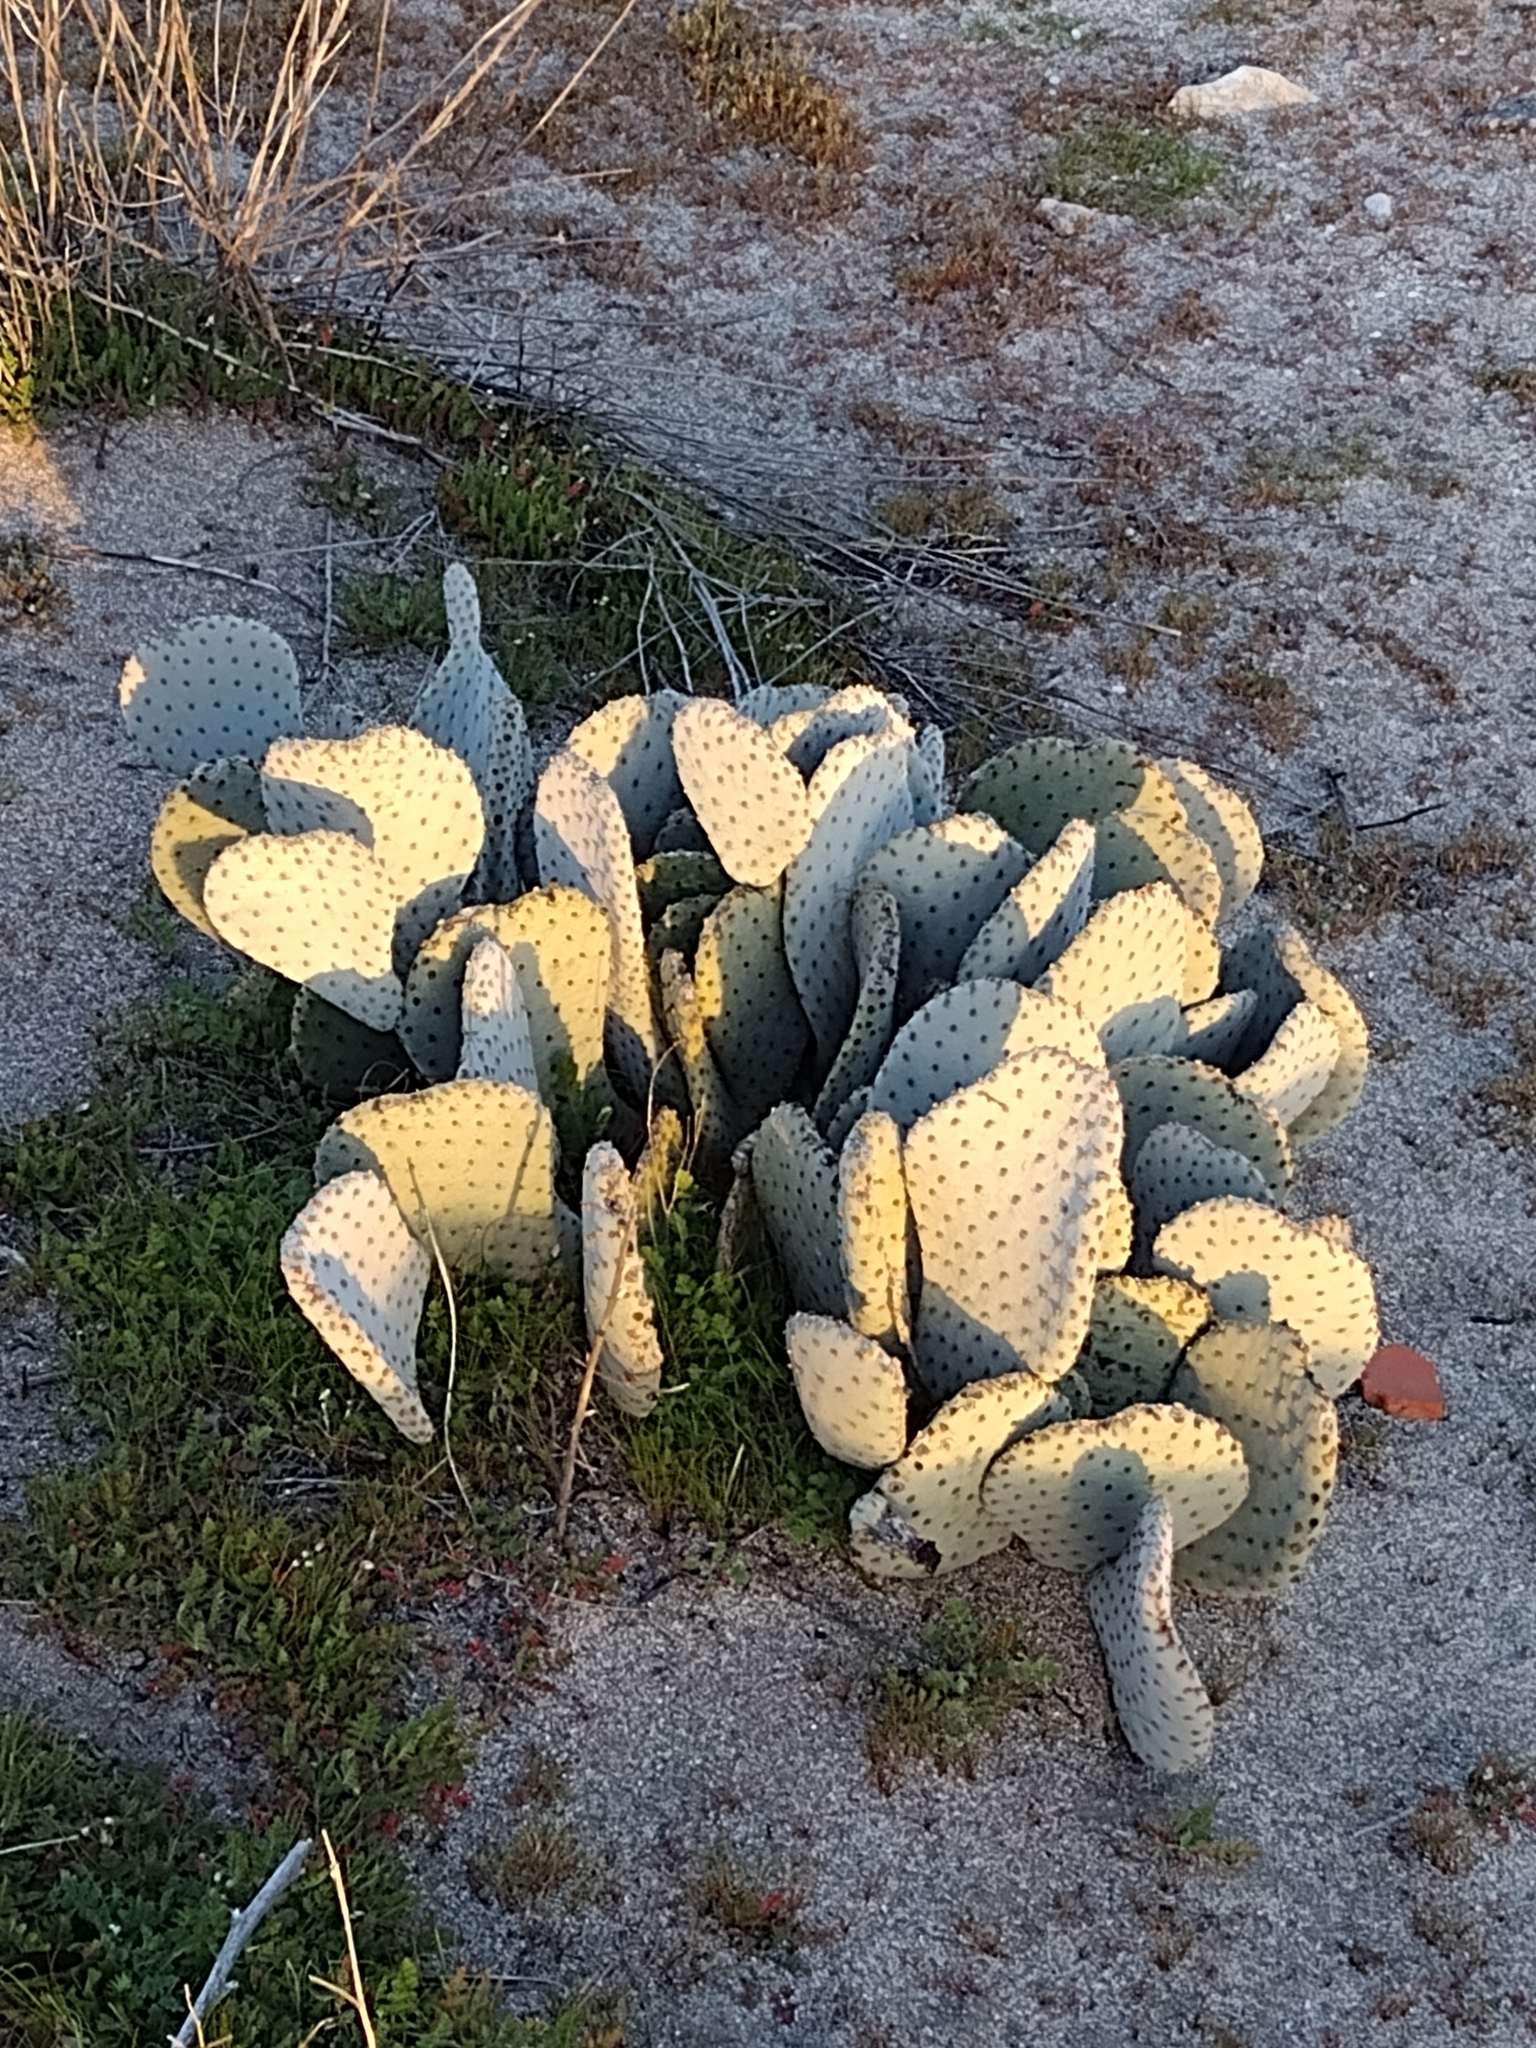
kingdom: Plantae
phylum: Tracheophyta
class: Magnoliopsida
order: Caryophyllales
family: Cactaceae
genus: Opuntia
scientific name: Opuntia basilaris
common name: Beavertail prickly-pear
